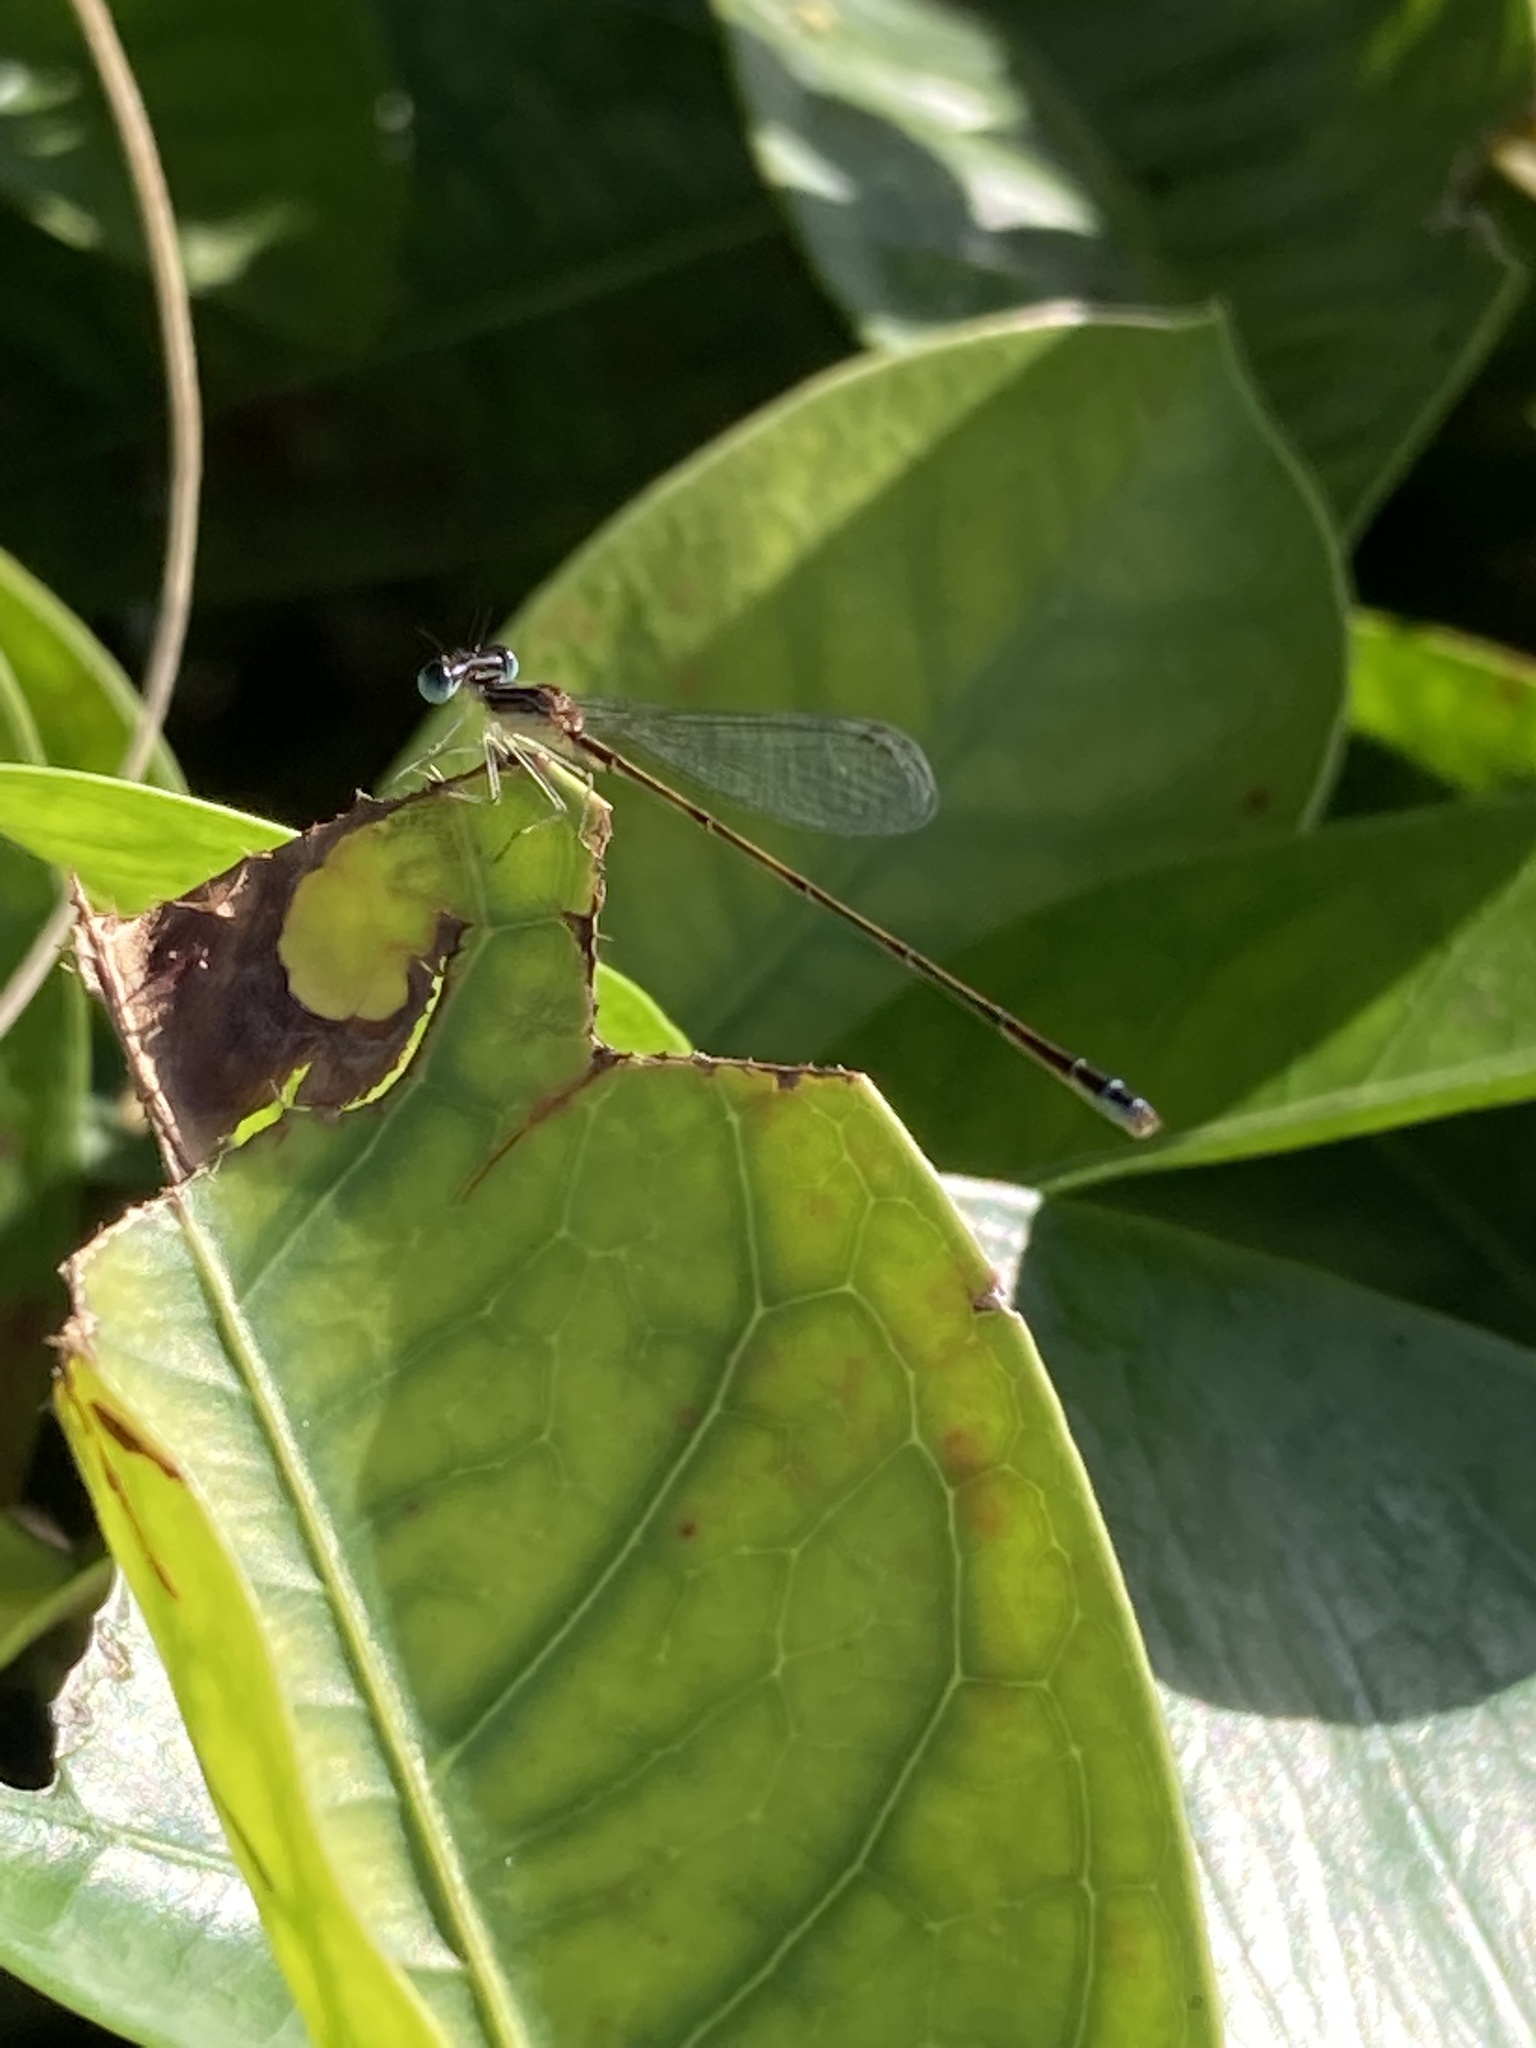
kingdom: Animalia
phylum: Arthropoda
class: Insecta
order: Odonata
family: Coenagrionidae
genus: Nehalennia
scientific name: Nehalennia pallidula
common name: Everglades sprite
